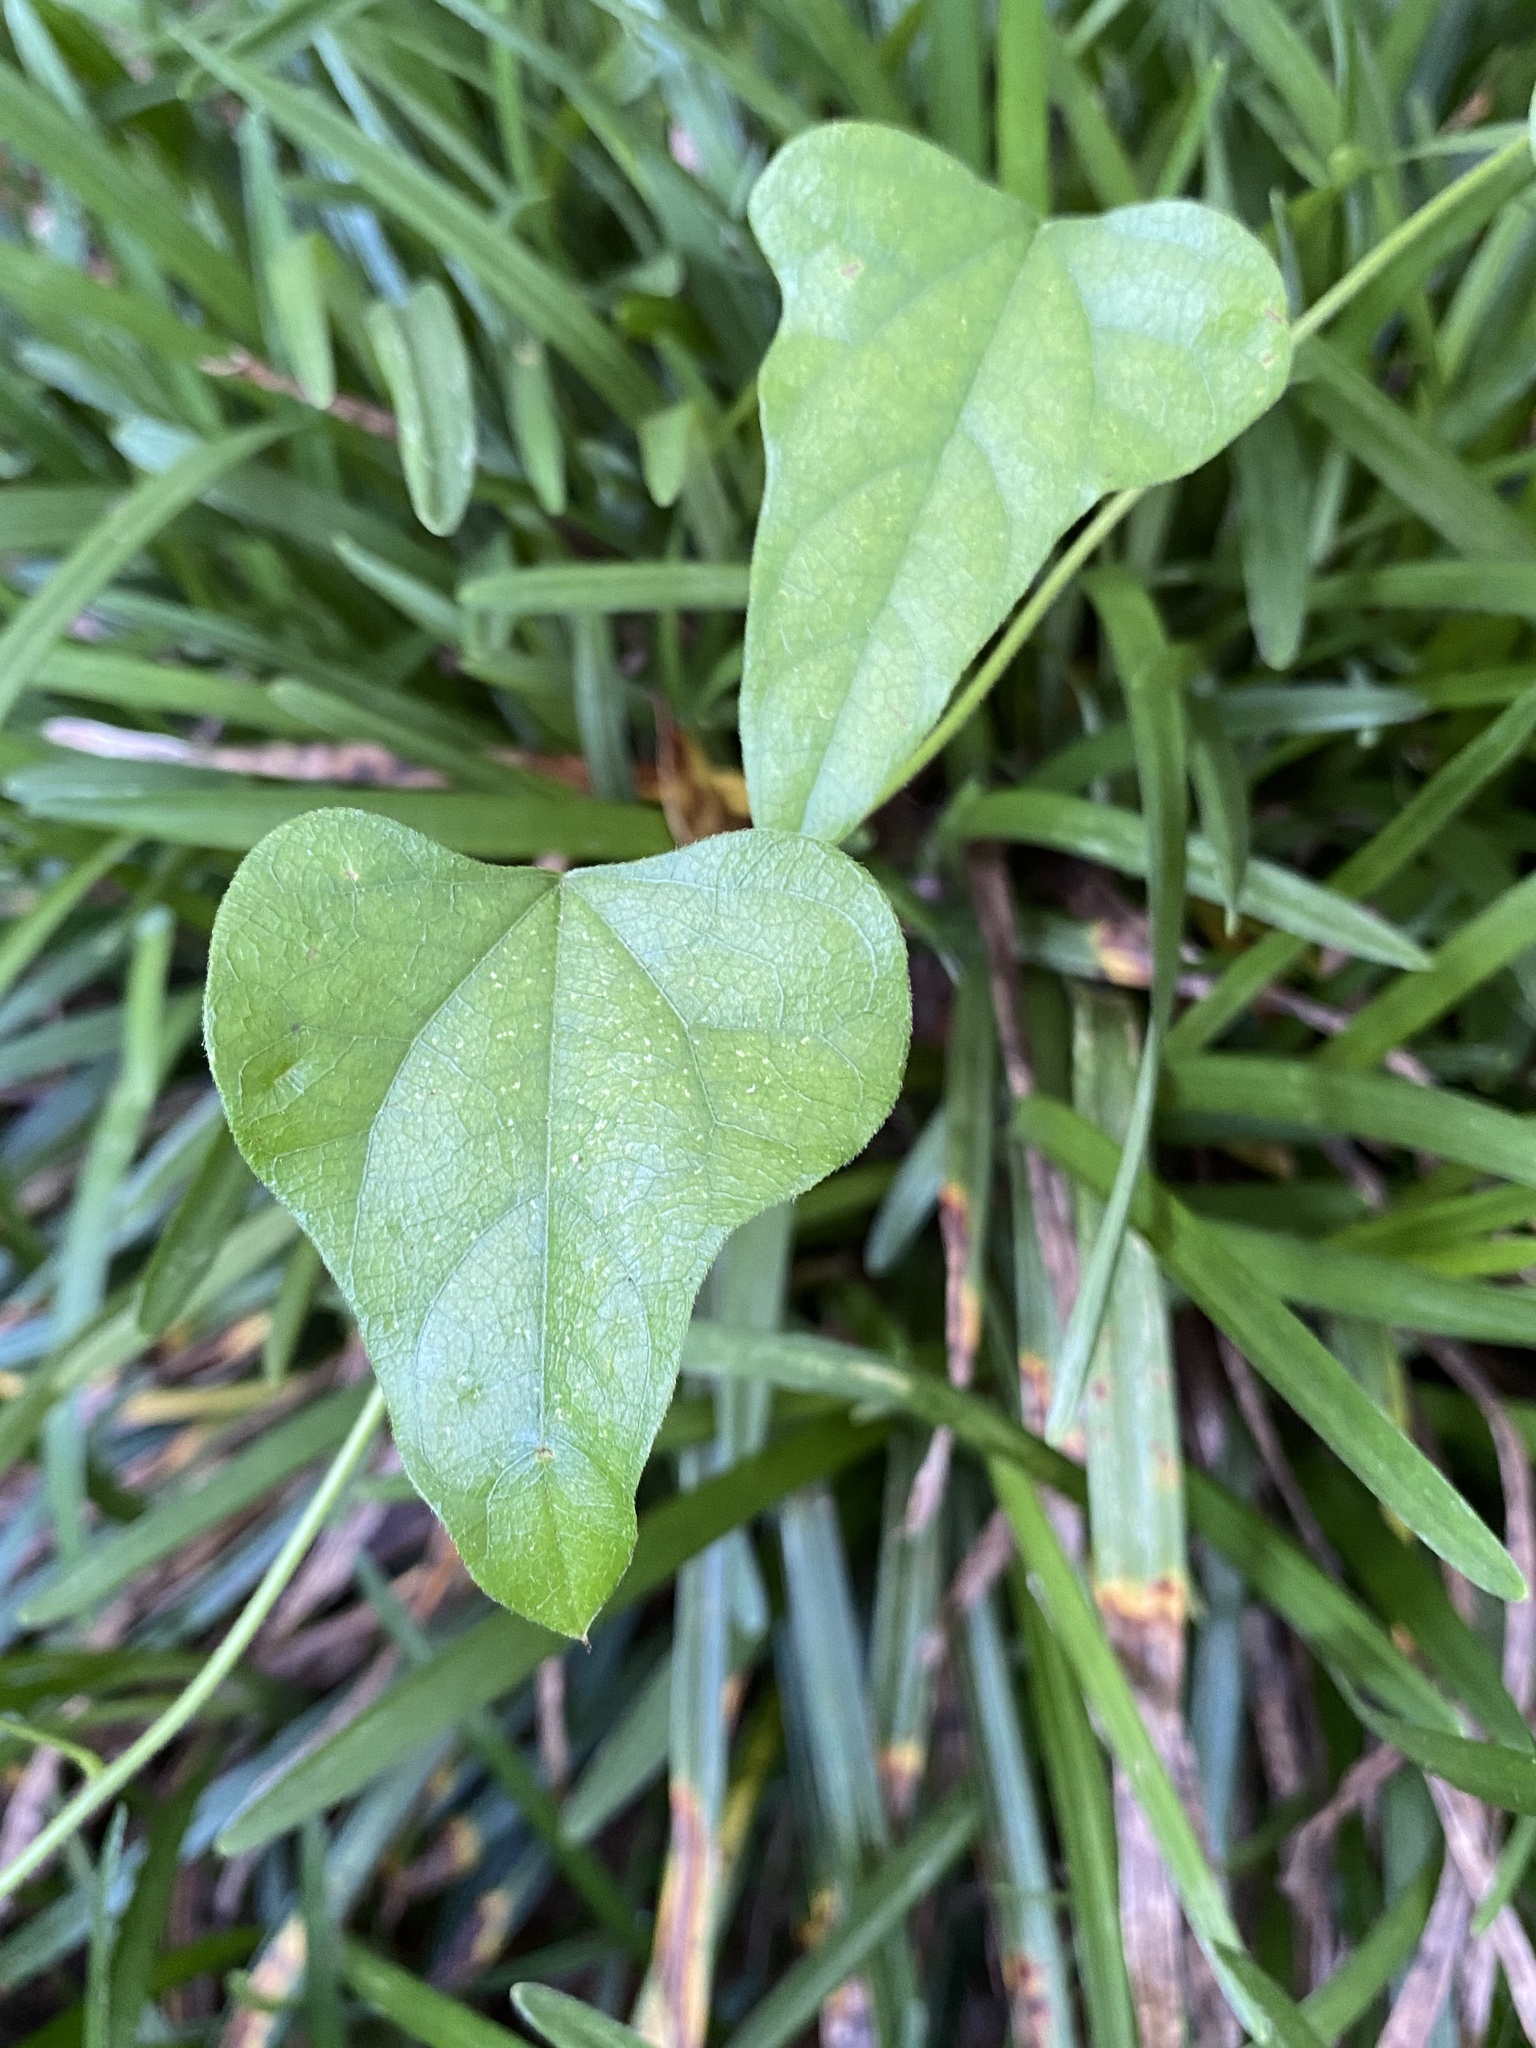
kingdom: Plantae
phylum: Tracheophyta
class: Magnoliopsida
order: Ranunculales
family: Menispermaceae
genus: Cocculus
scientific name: Cocculus carolinus
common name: Carolina moonseed
